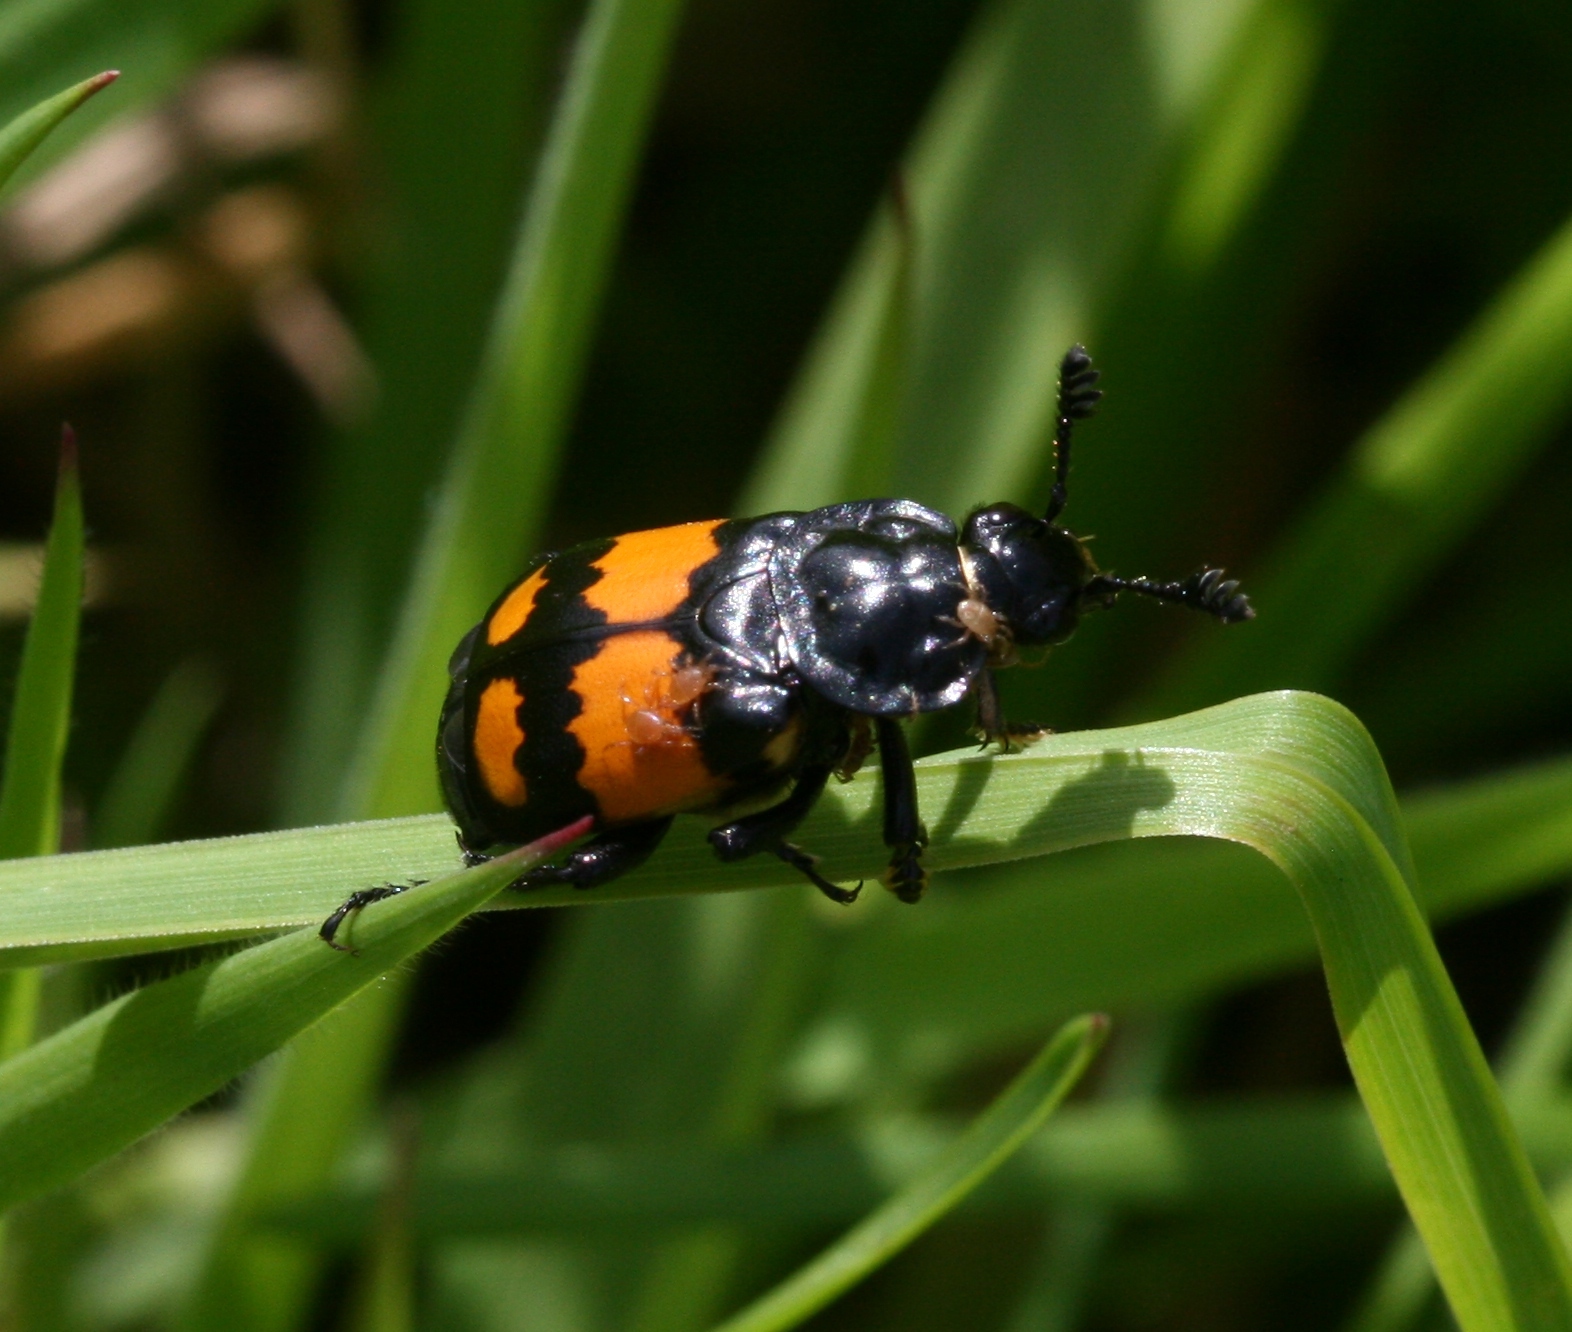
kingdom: Animalia
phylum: Arthropoda
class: Insecta
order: Coleoptera
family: Staphylinidae
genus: Nicrophorus
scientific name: Nicrophorus vespilloides
